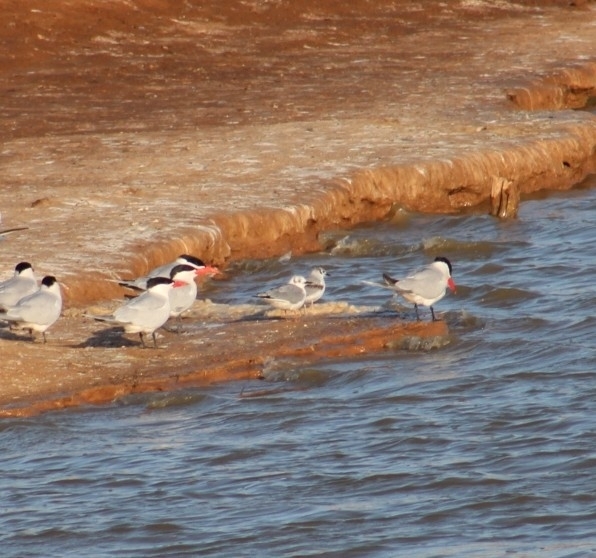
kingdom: Animalia
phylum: Chordata
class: Aves
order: Charadriiformes
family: Laridae
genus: Chroicocephalus
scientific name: Chroicocephalus philadelphia
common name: Bonaparte's gull
